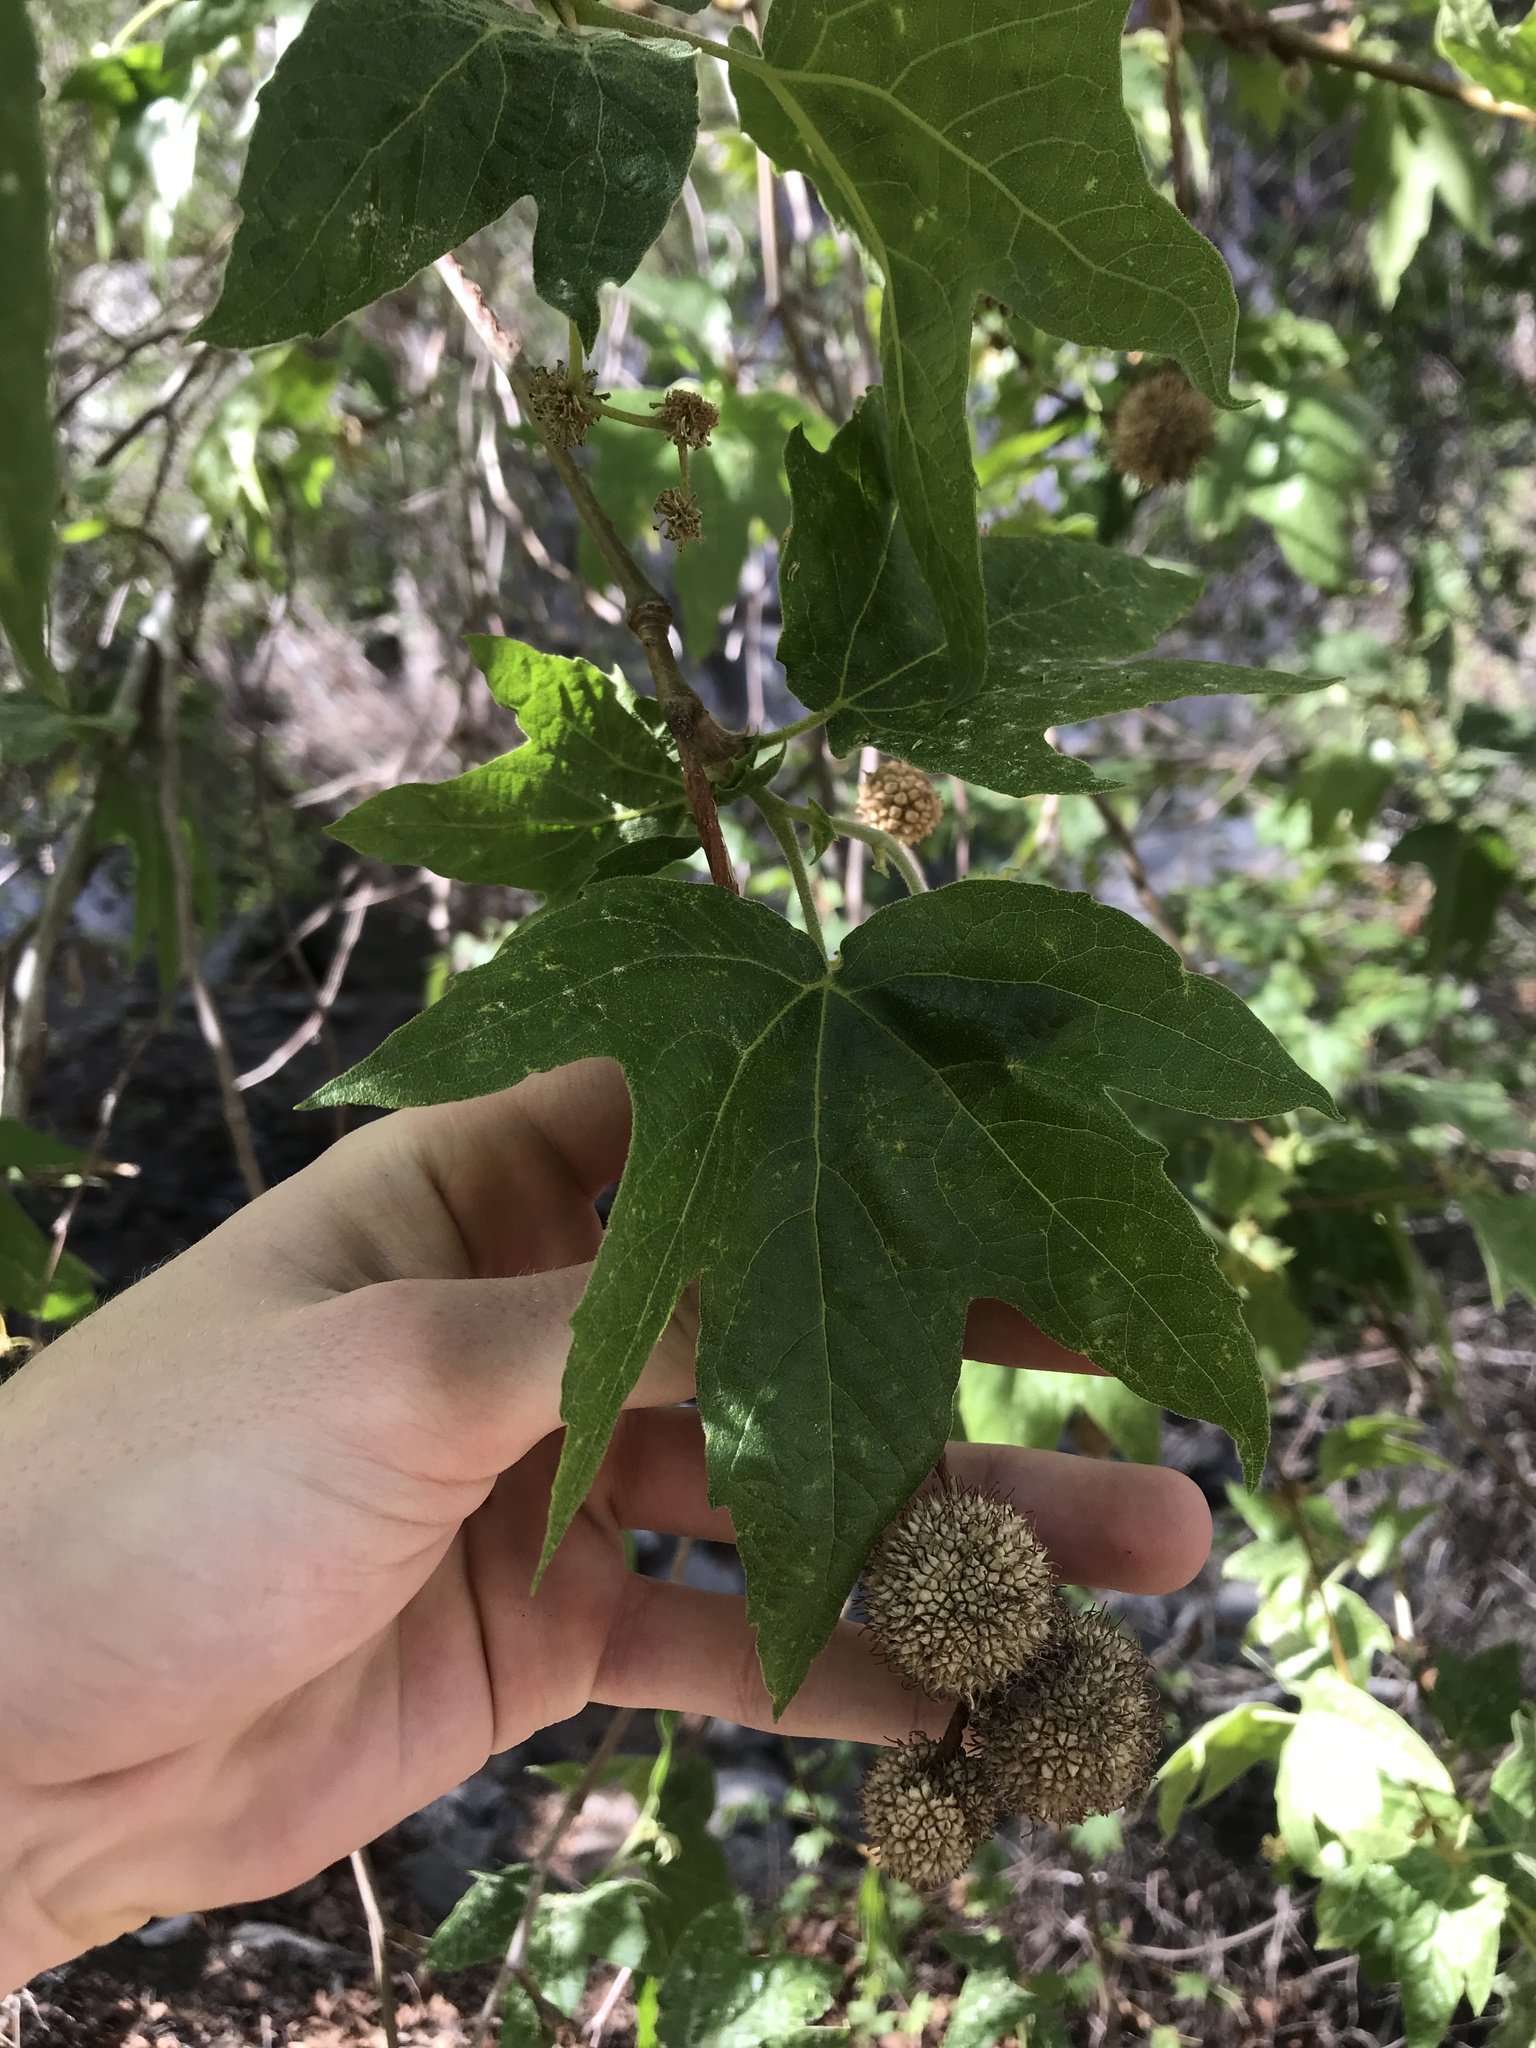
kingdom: Plantae
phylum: Tracheophyta
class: Magnoliopsida
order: Proteales
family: Platanaceae
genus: Platanus
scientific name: Platanus racemosa
